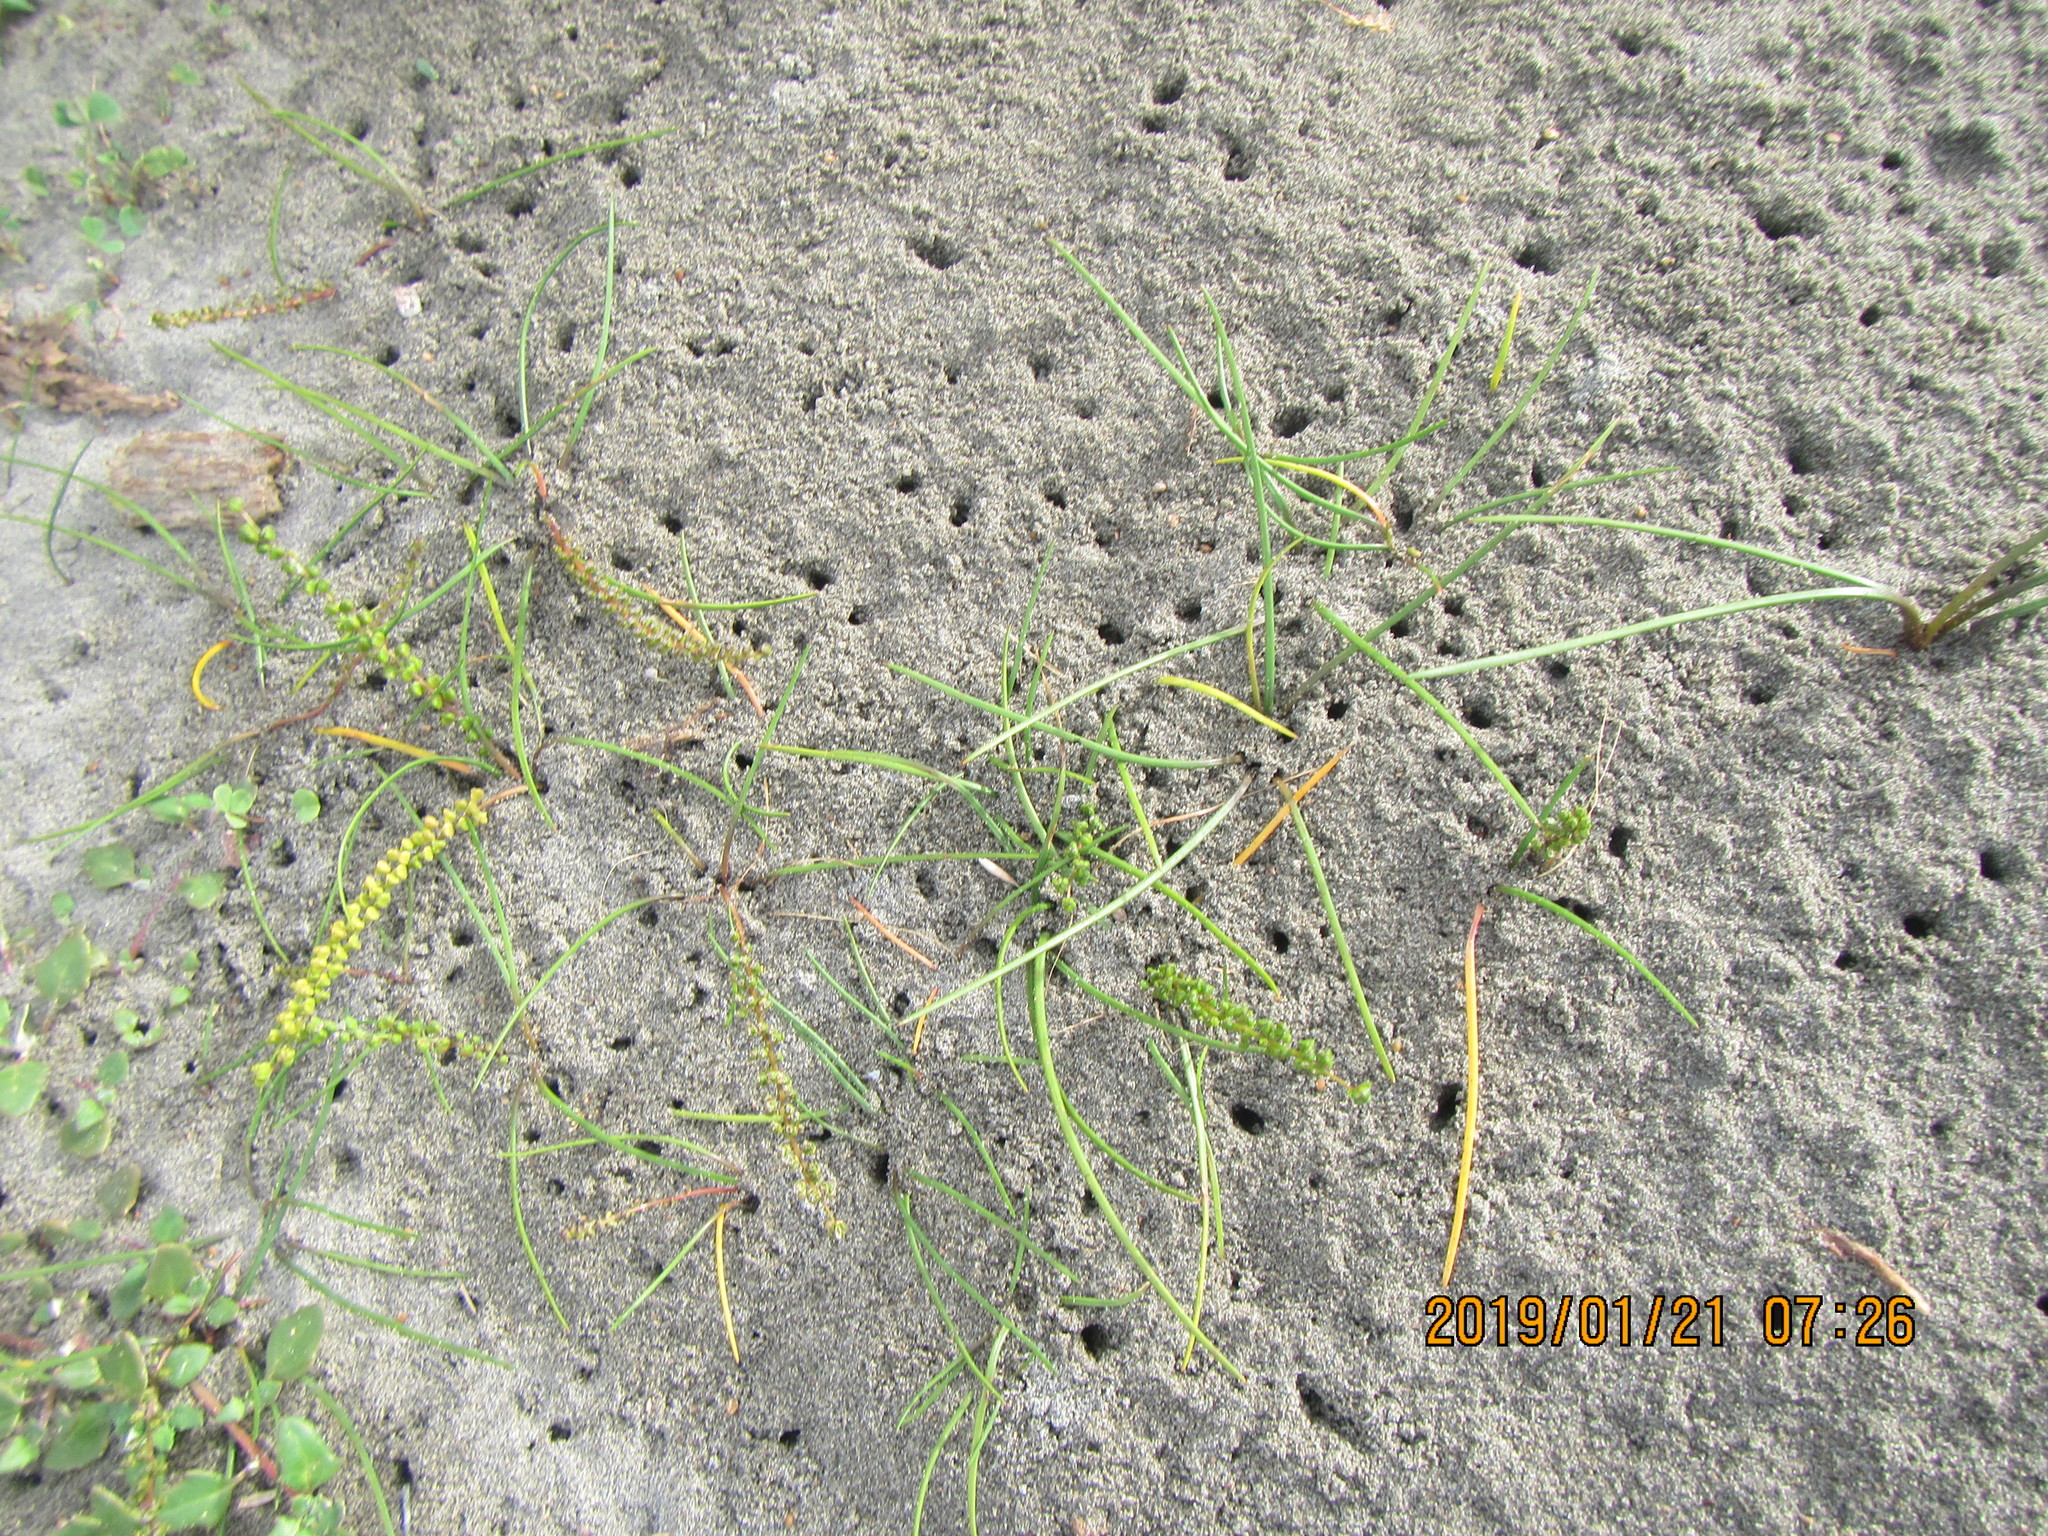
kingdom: Plantae
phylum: Tracheophyta
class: Liliopsida
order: Alismatales
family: Juncaginaceae
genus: Triglochin
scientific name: Triglochin striata
